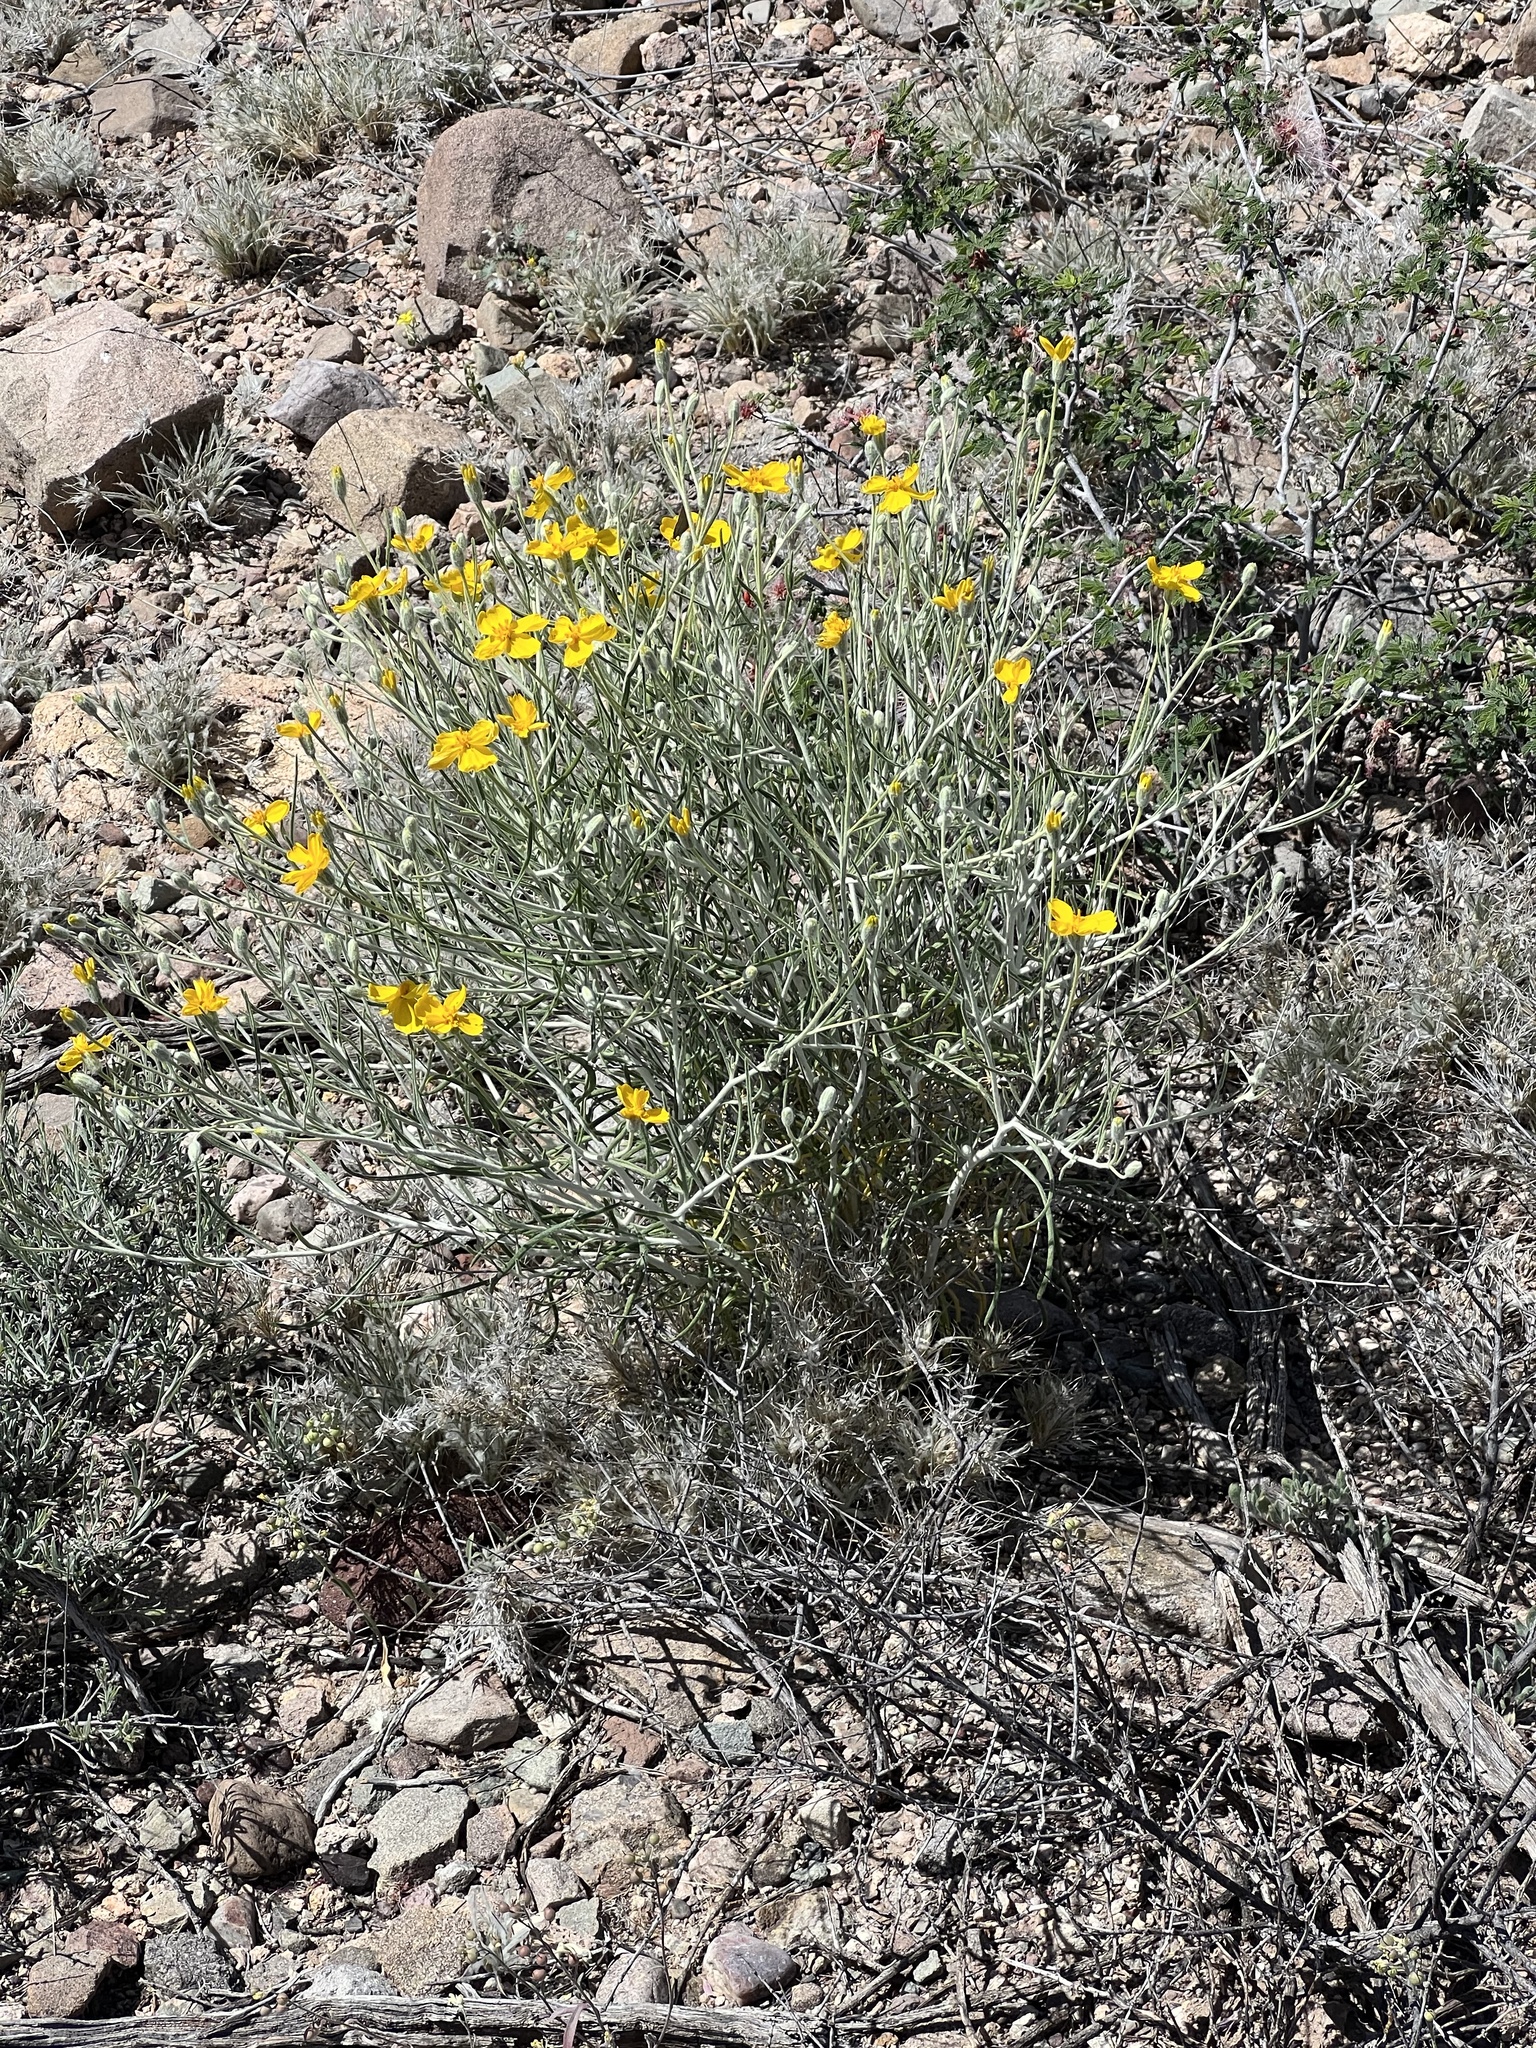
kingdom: Plantae
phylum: Tracheophyta
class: Magnoliopsida
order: Asterales
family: Asteraceae
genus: Psilostrophe
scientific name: Psilostrophe cooperi
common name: White-stem paper-flower
